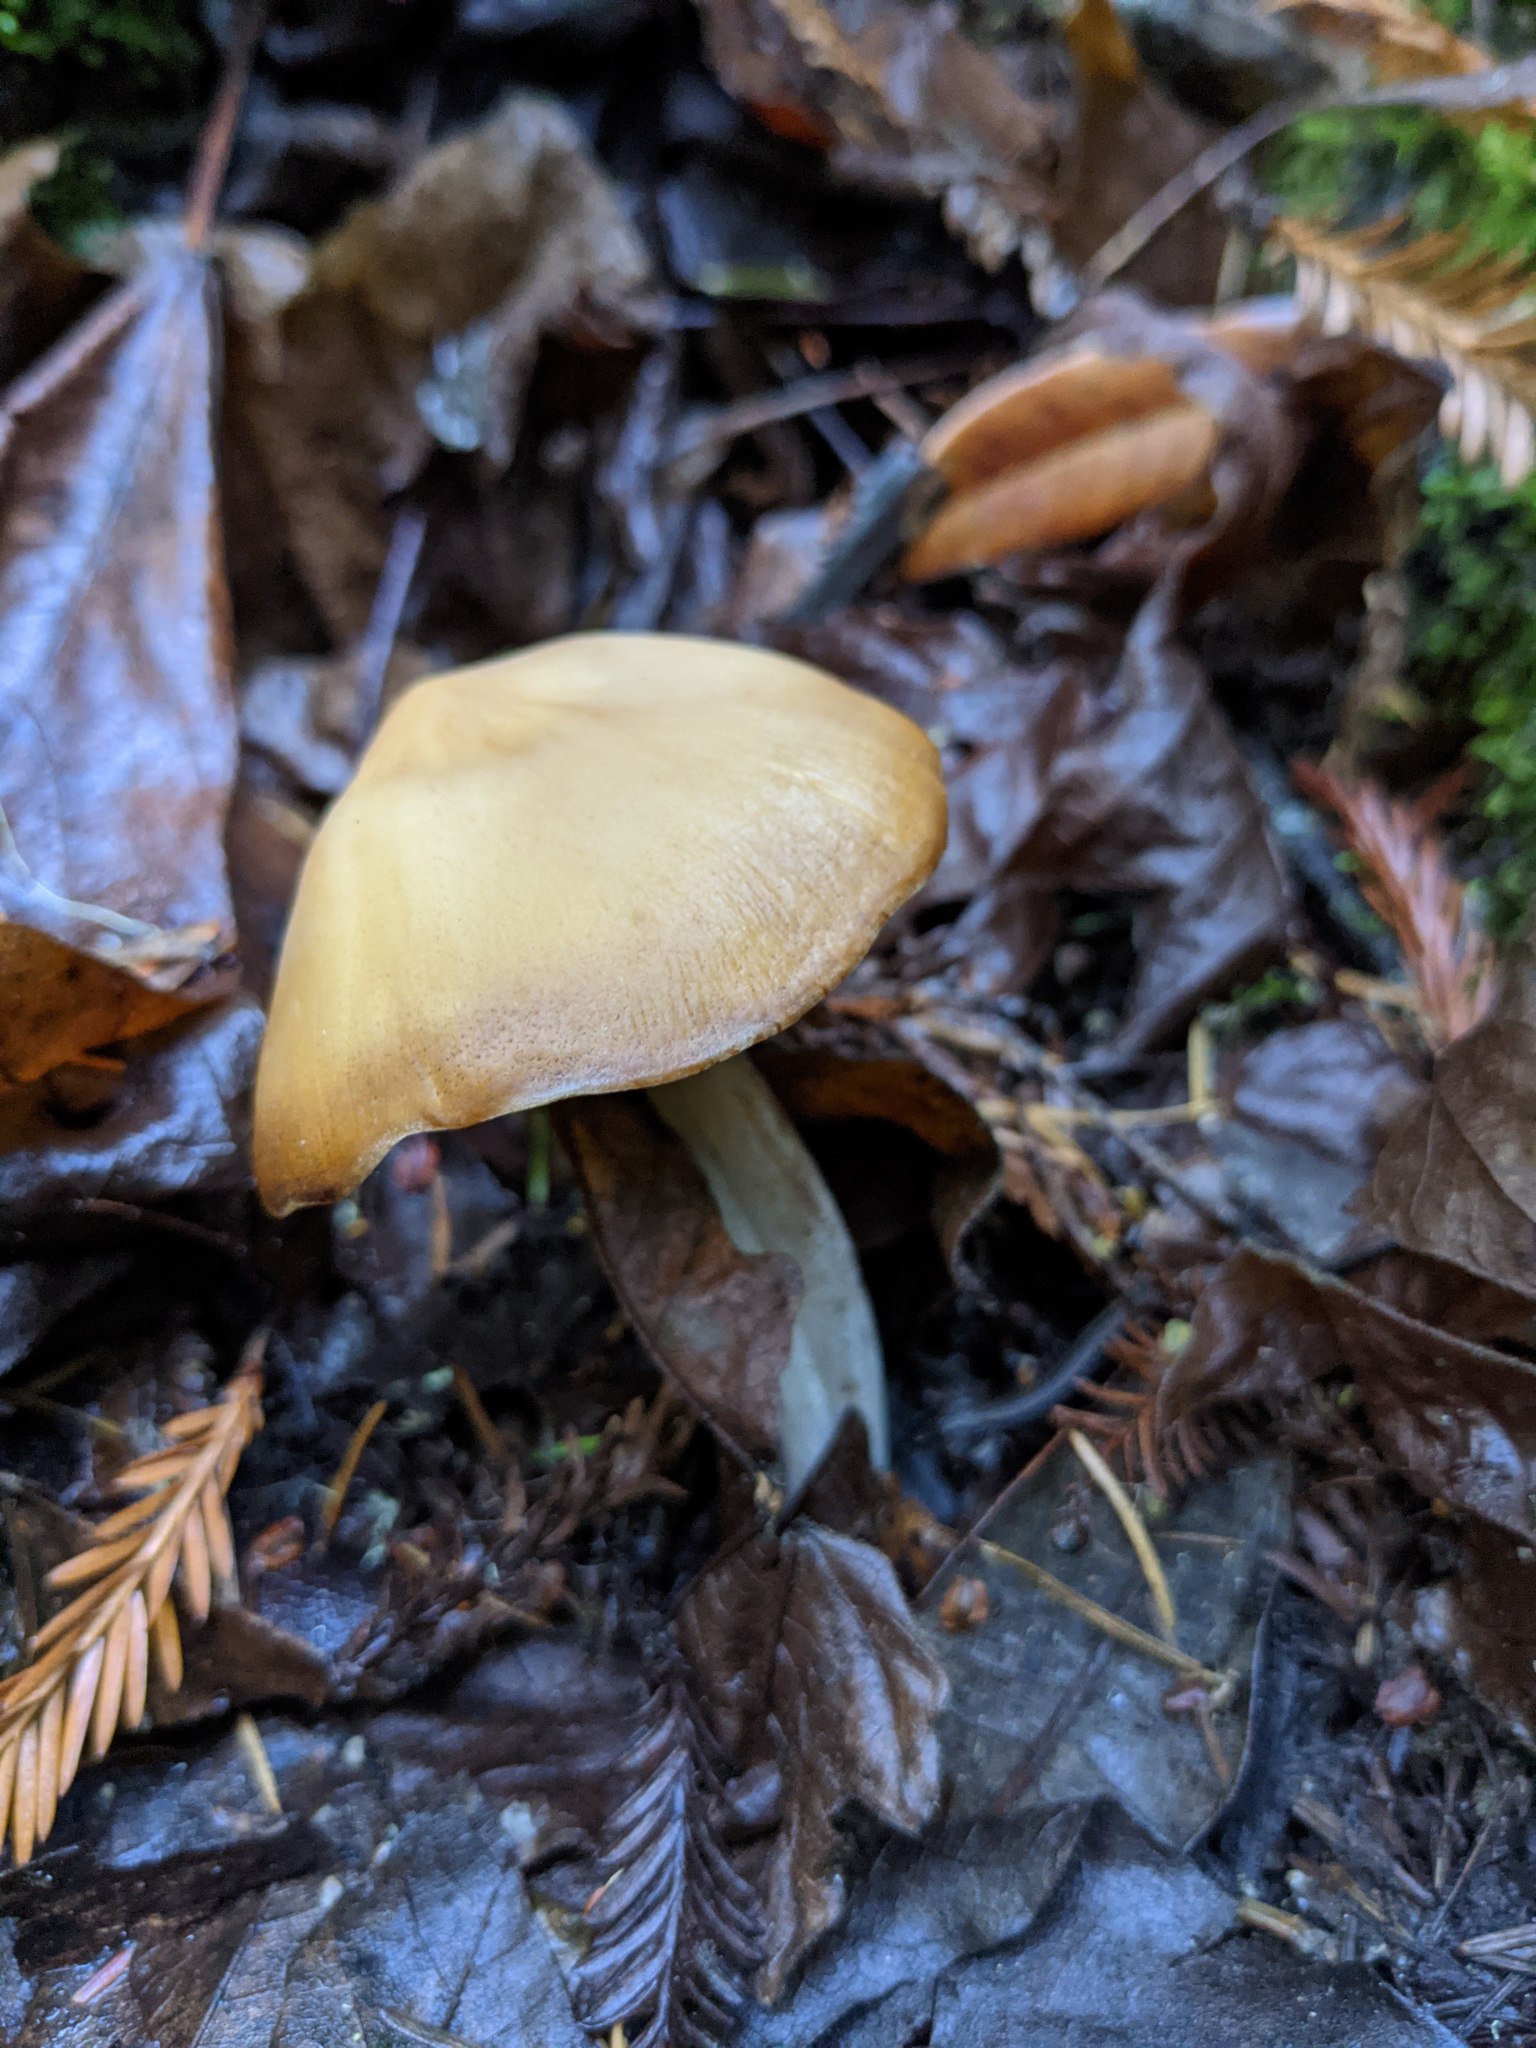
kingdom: Fungi
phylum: Basidiomycota
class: Agaricomycetes
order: Agaricales
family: Tricholomataceae
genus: Caulorhiza
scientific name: Caulorhiza umbonata
